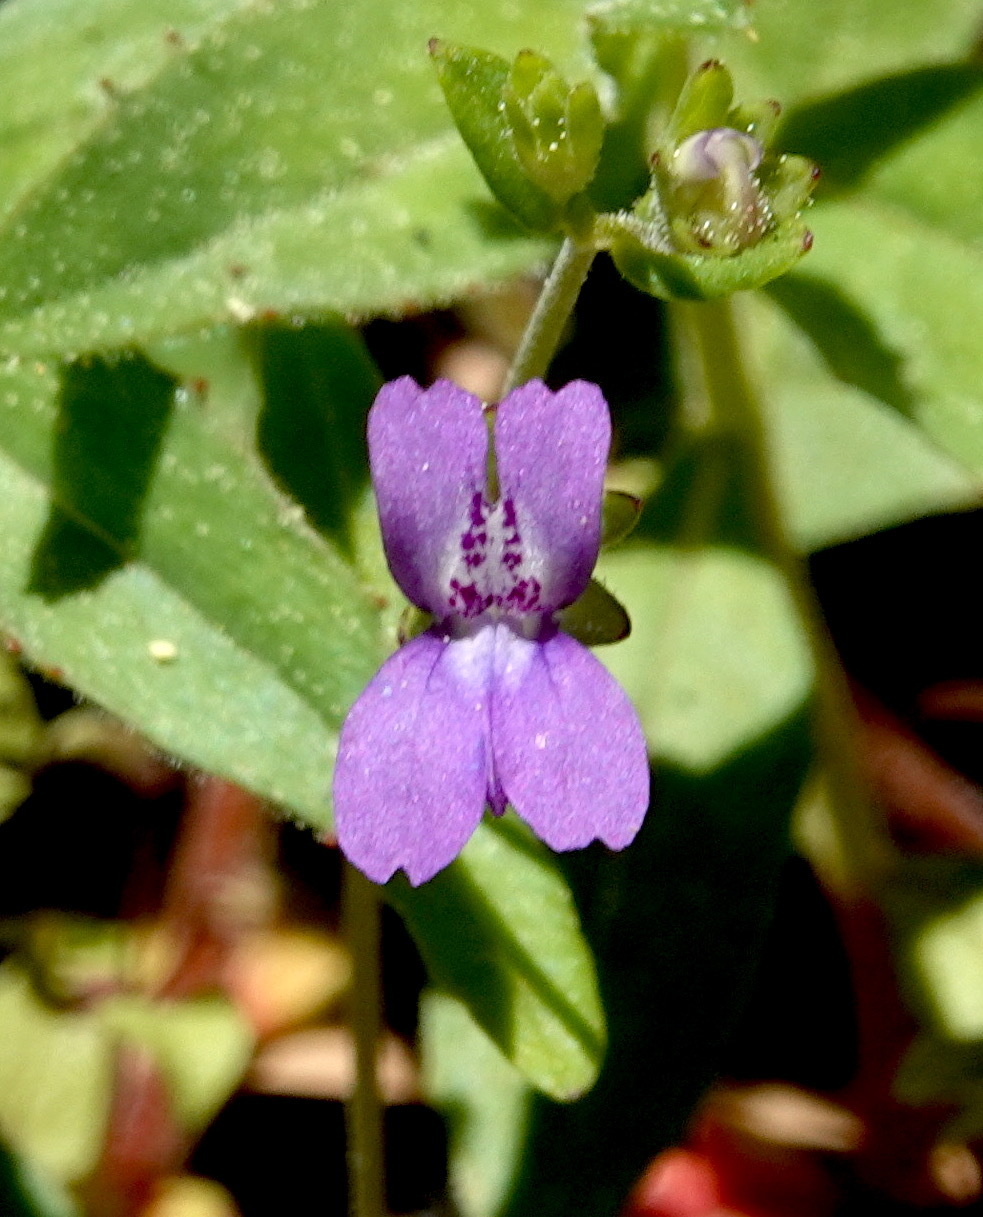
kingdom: Plantae
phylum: Tracheophyta
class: Magnoliopsida
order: Lamiales
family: Plantaginaceae
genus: Collinsia
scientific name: Collinsia parryi
